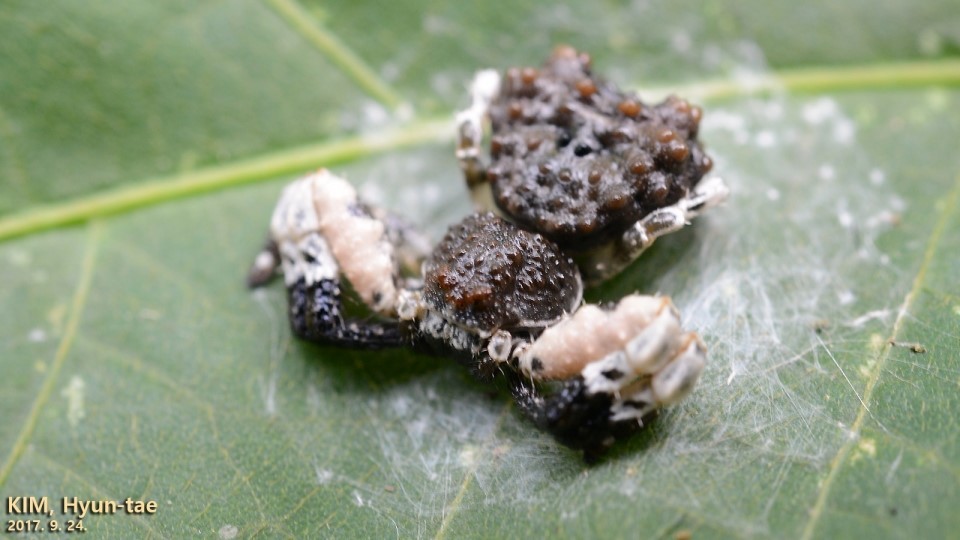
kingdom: Animalia
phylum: Arthropoda
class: Arachnida
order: Araneae
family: Thomisidae
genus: Phrynarachne
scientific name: Phrynarachne katoi
